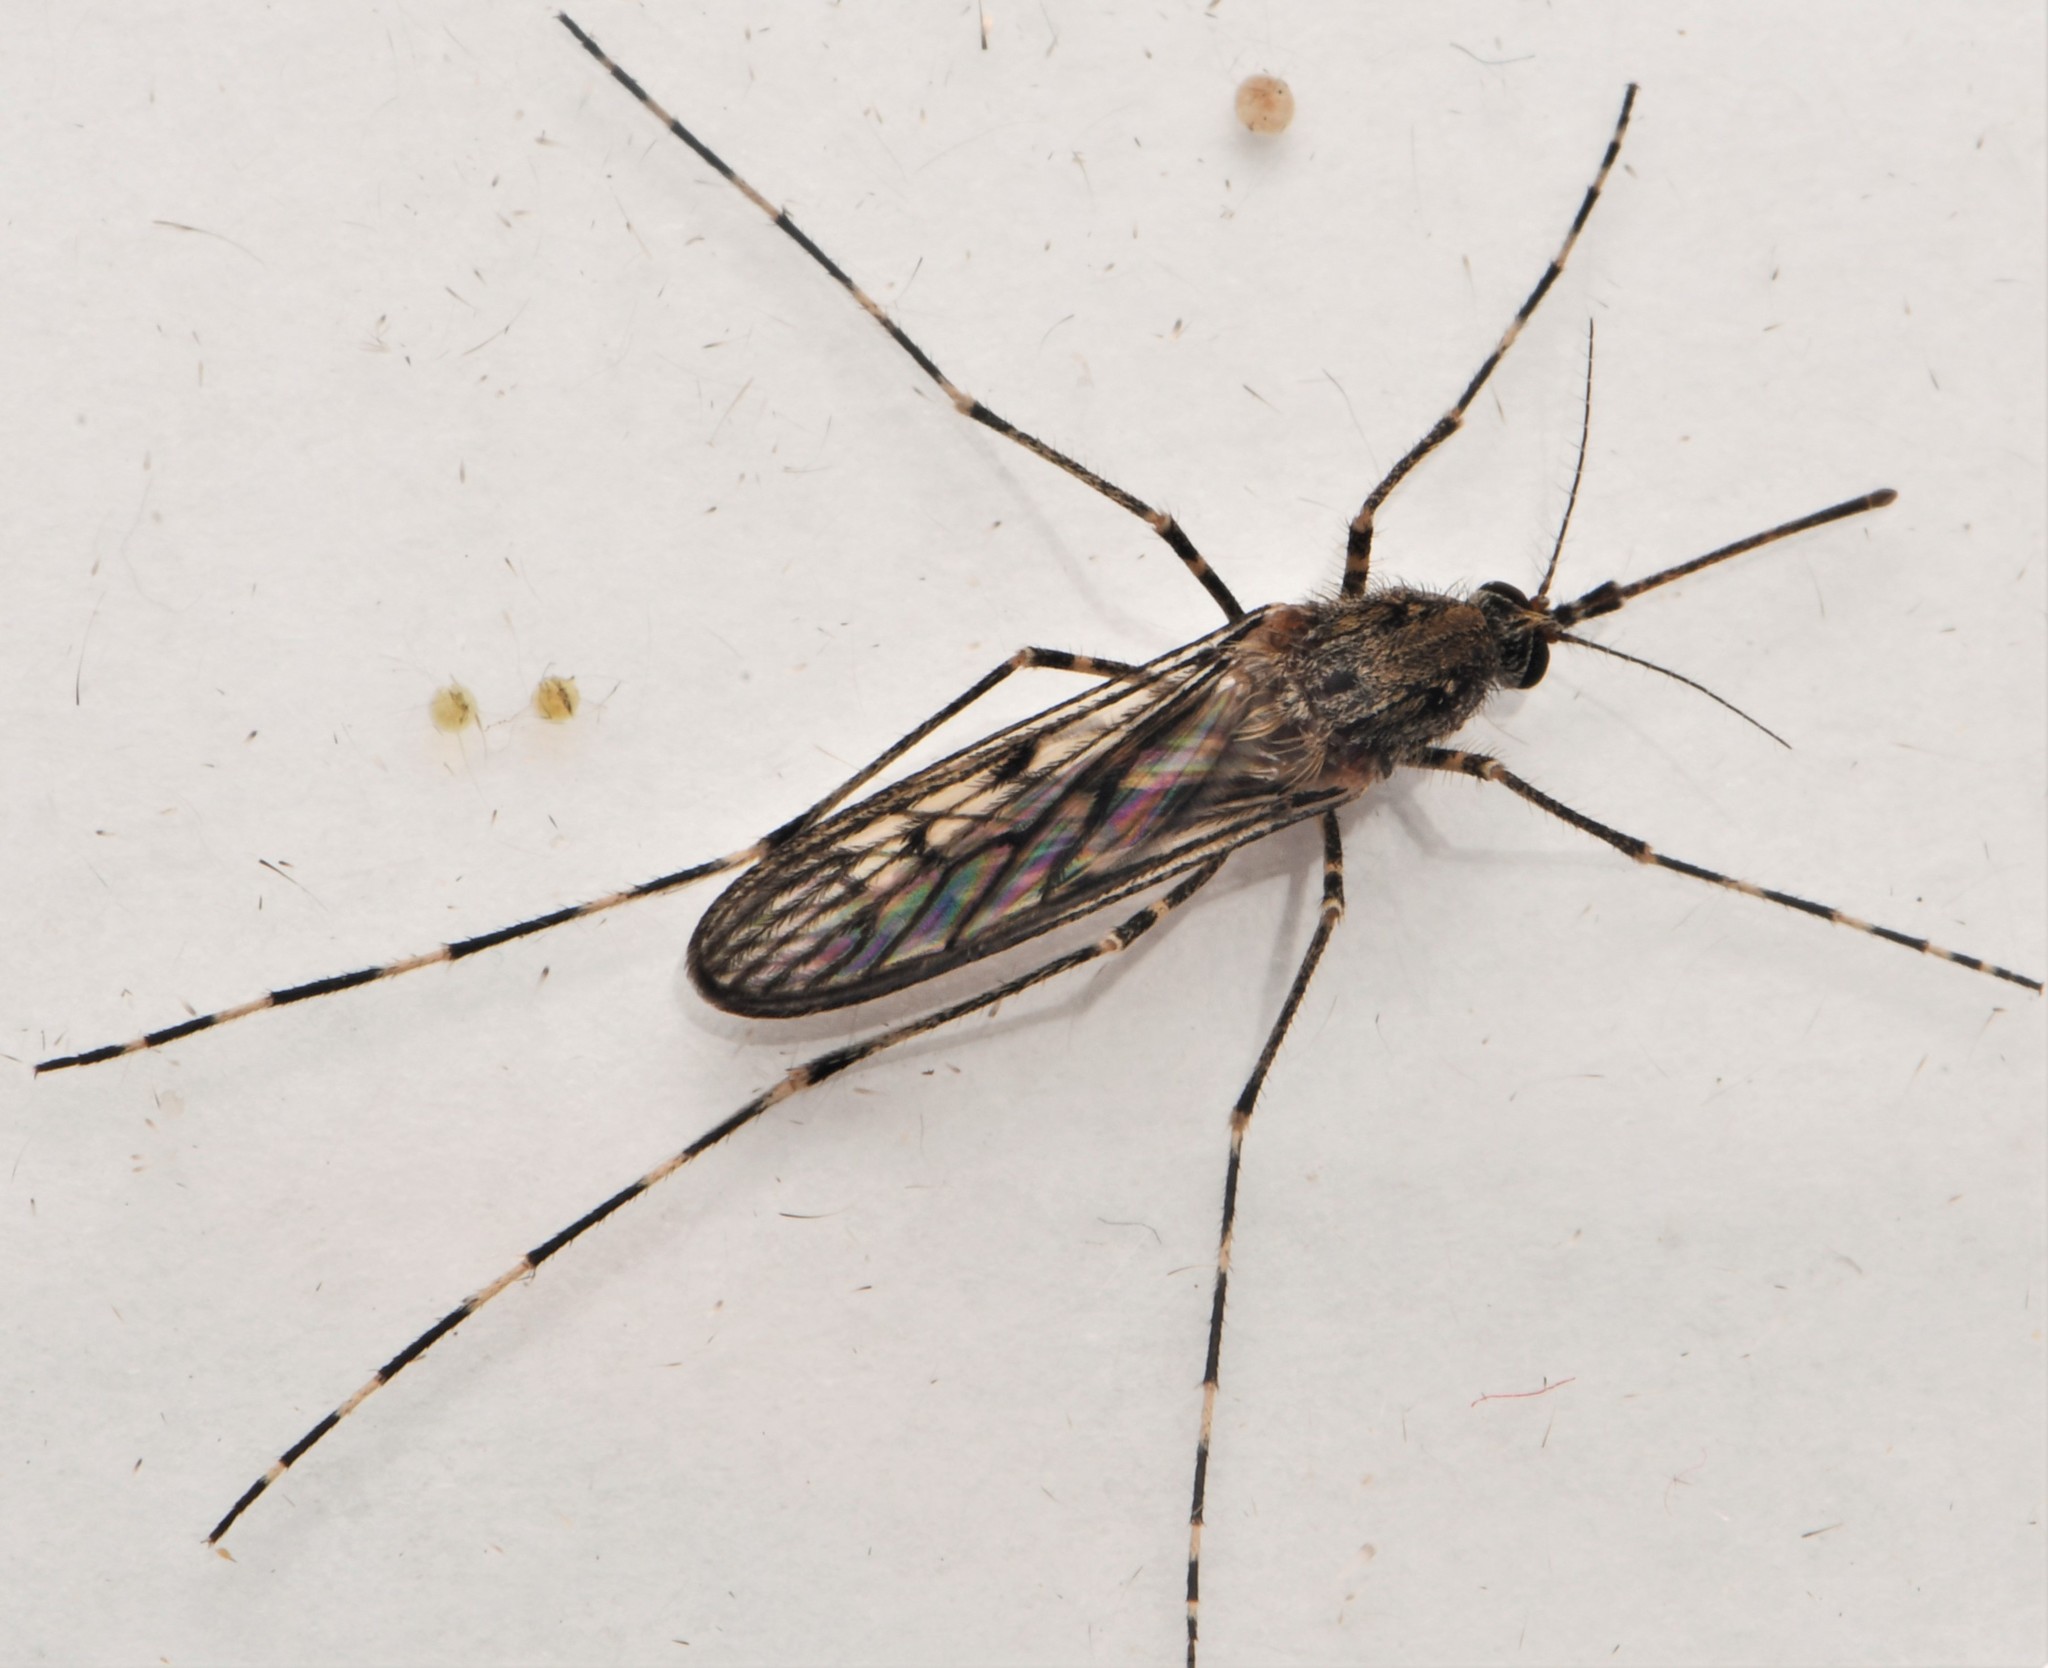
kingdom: Animalia
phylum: Arthropoda
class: Insecta
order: Diptera
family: Culicidae
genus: Culiseta
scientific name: Culiseta annulata
